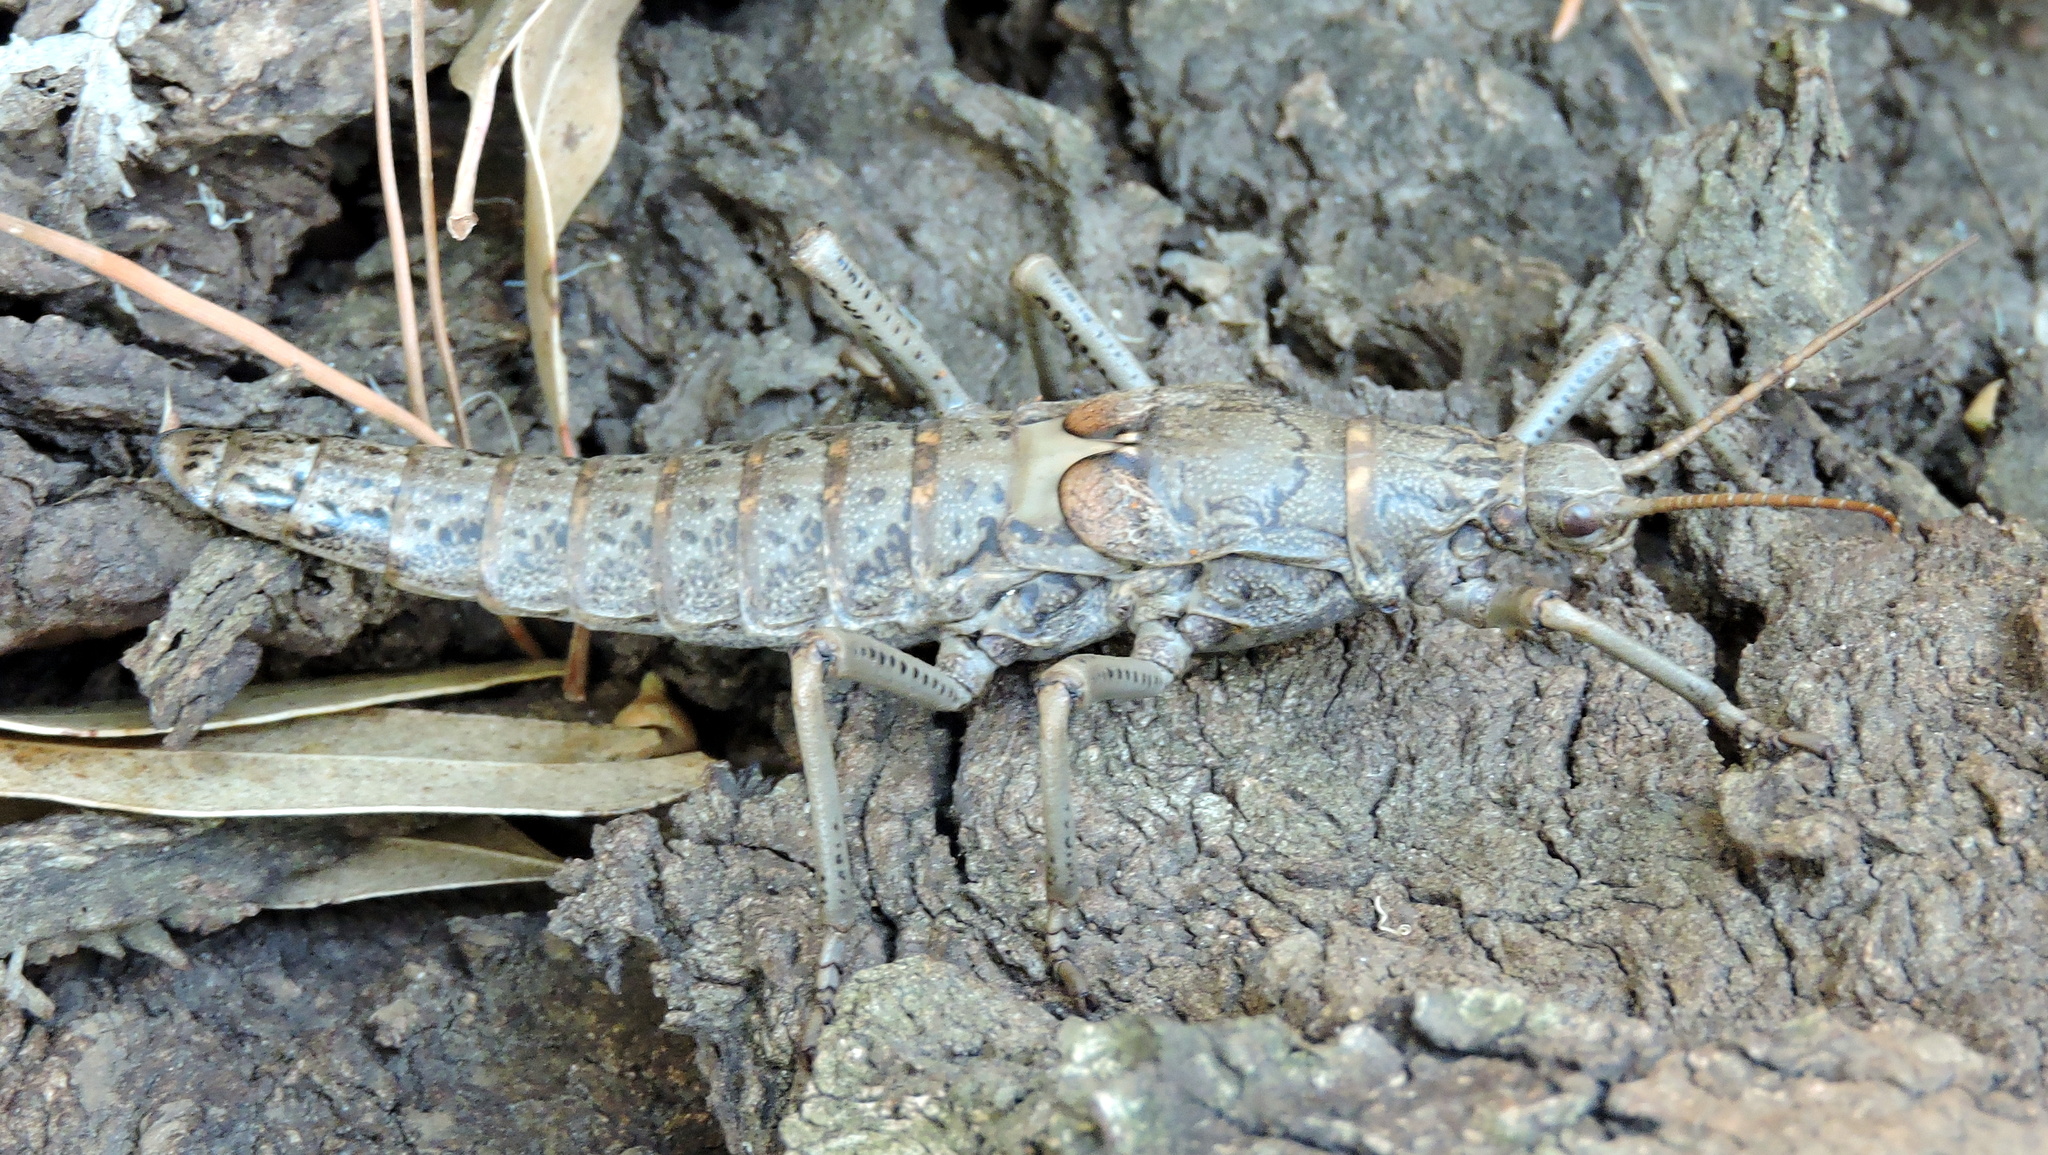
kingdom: Animalia
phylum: Arthropoda
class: Insecta
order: Phasmida
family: Agathemeridae
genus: Agathemera
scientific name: Agathemera luteola
